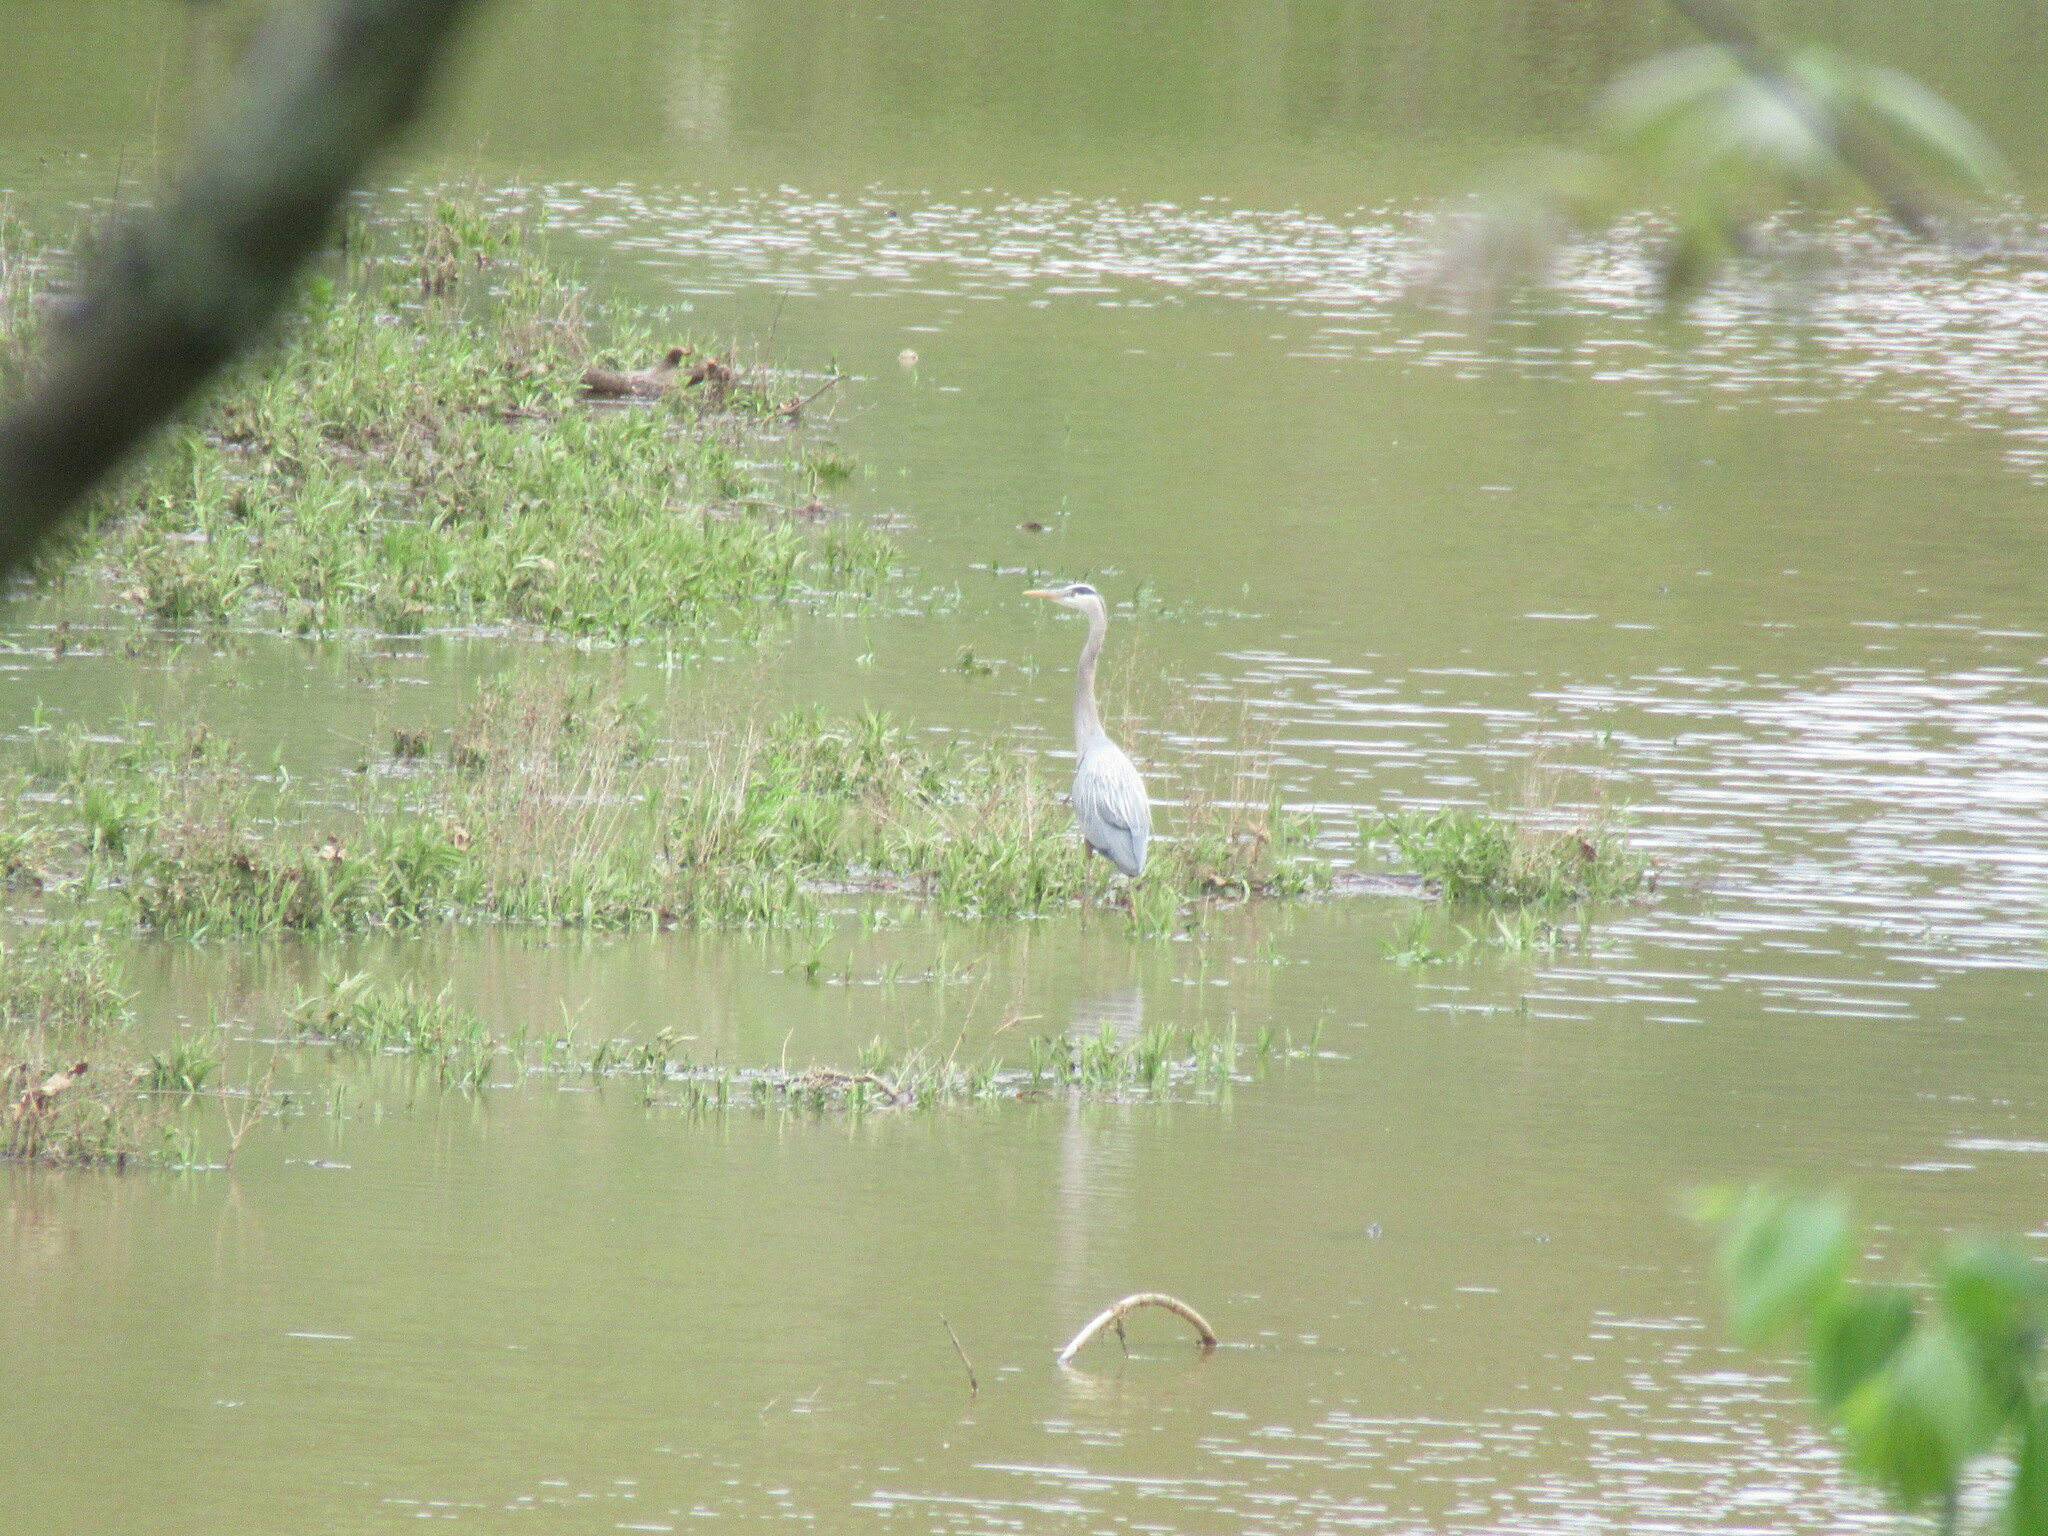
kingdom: Animalia
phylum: Chordata
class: Aves
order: Pelecaniformes
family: Ardeidae
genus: Ardea
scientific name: Ardea herodias
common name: Great blue heron
